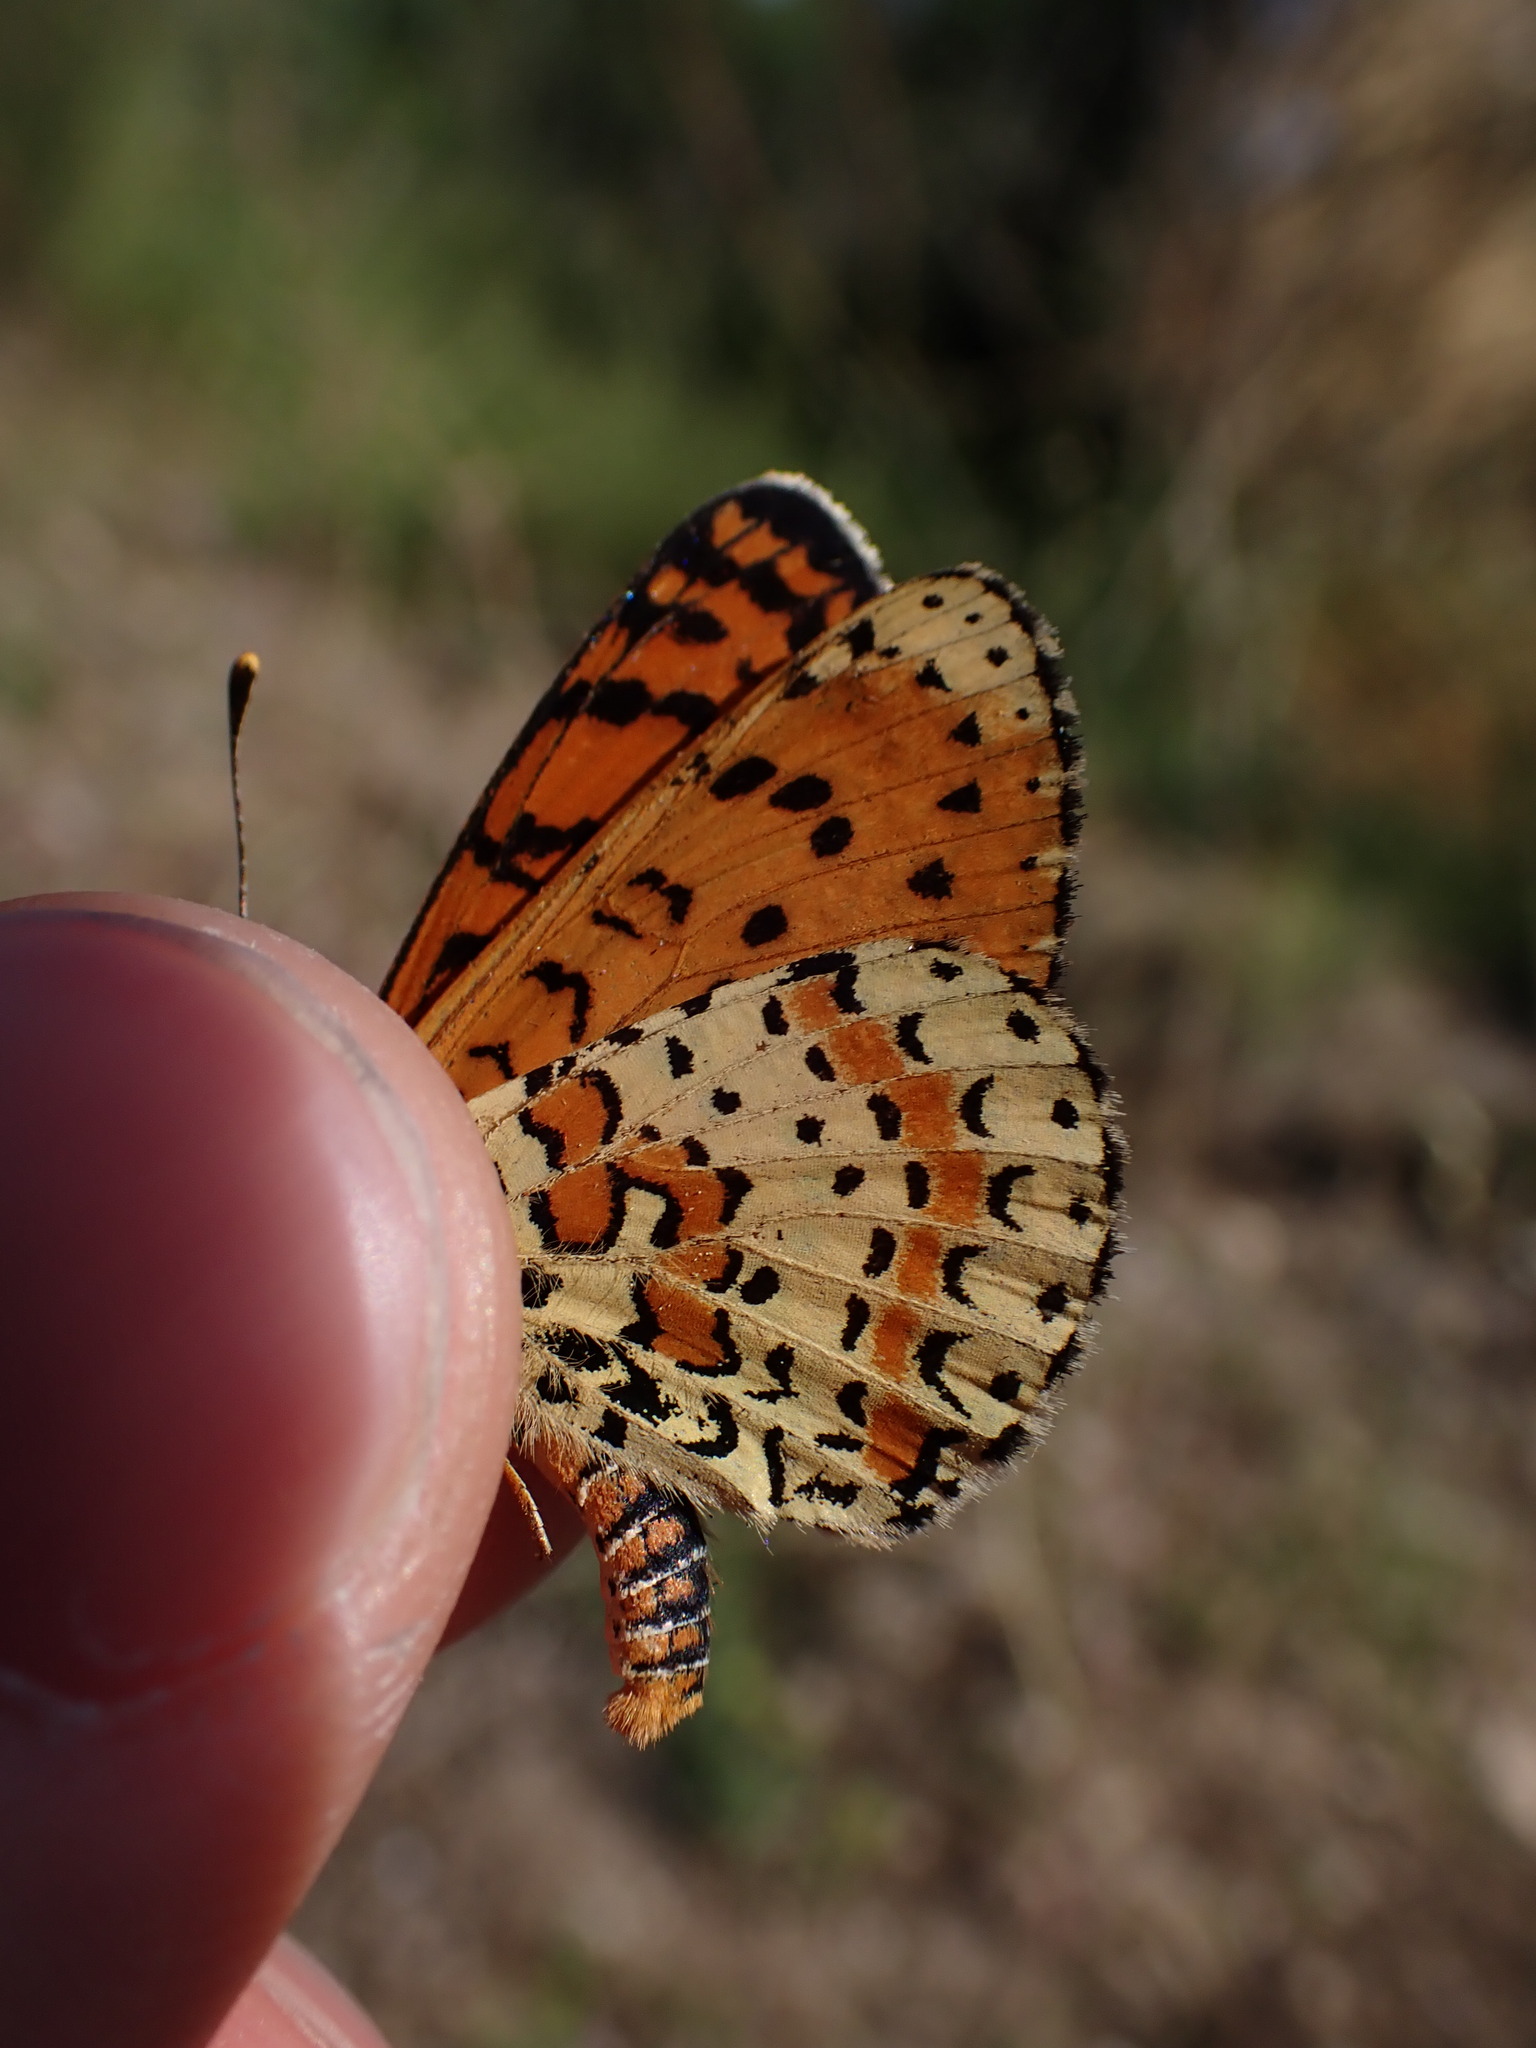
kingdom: Animalia
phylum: Arthropoda
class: Insecta
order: Lepidoptera
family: Nymphalidae
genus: Melitaea
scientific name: Melitaea didyma
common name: Spotted fritillary
